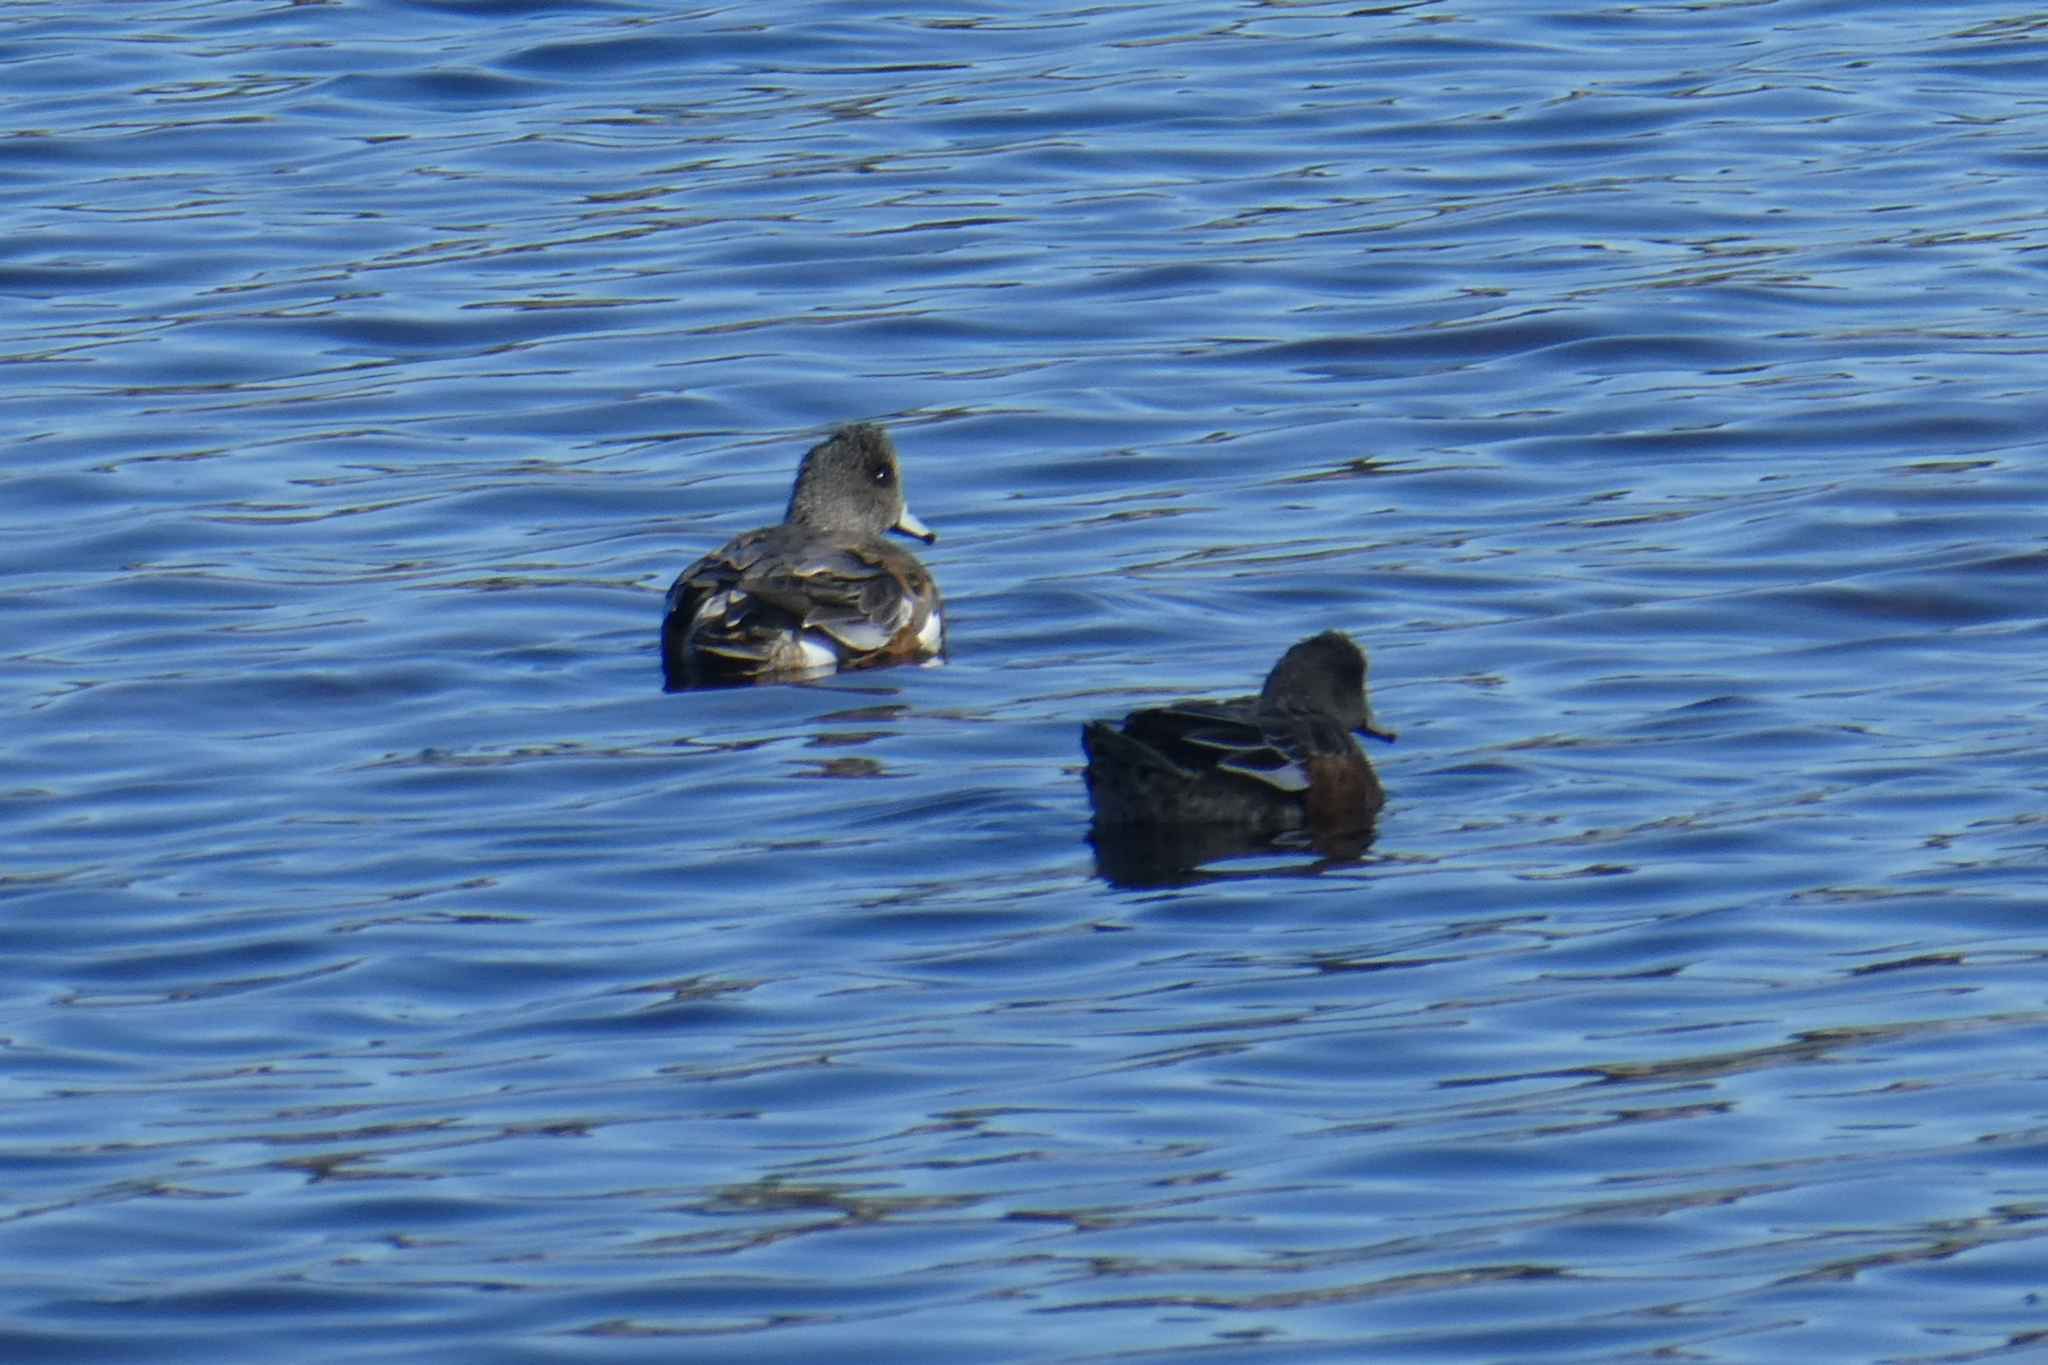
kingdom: Animalia
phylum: Chordata
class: Aves
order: Anseriformes
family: Anatidae
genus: Mareca
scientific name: Mareca americana
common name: American wigeon
